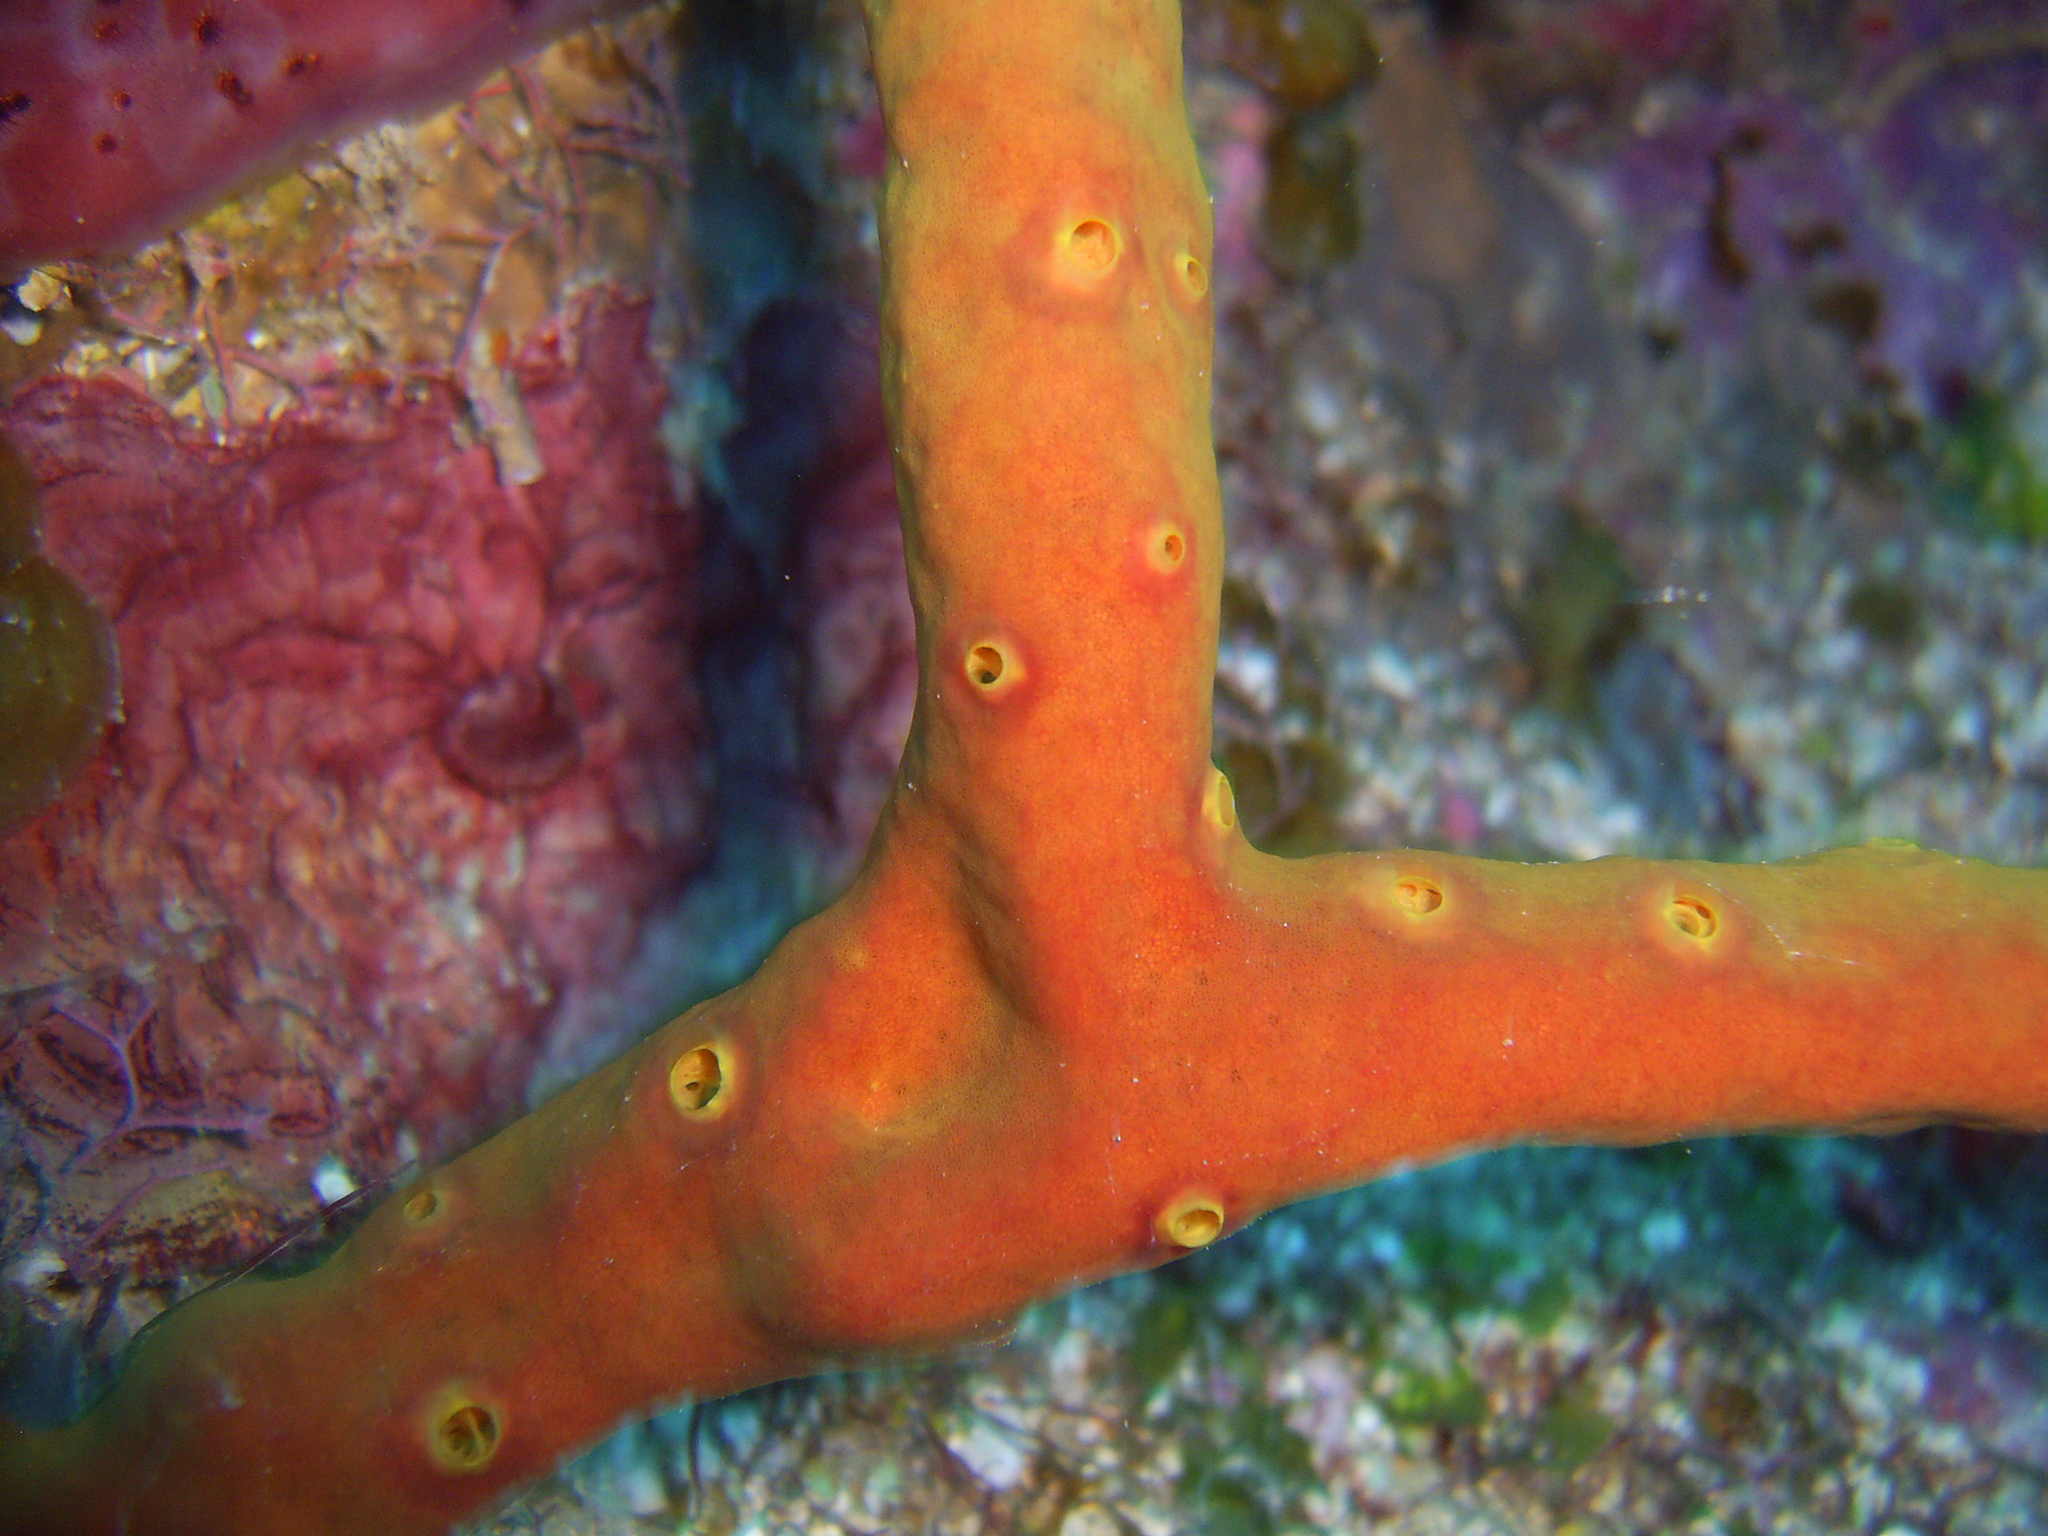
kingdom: Animalia
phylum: Porifera
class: Demospongiae
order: Verongiida
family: Aplysinidae
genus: Aplysina
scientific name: Aplysina cauliformis
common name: Branching candle sponge
